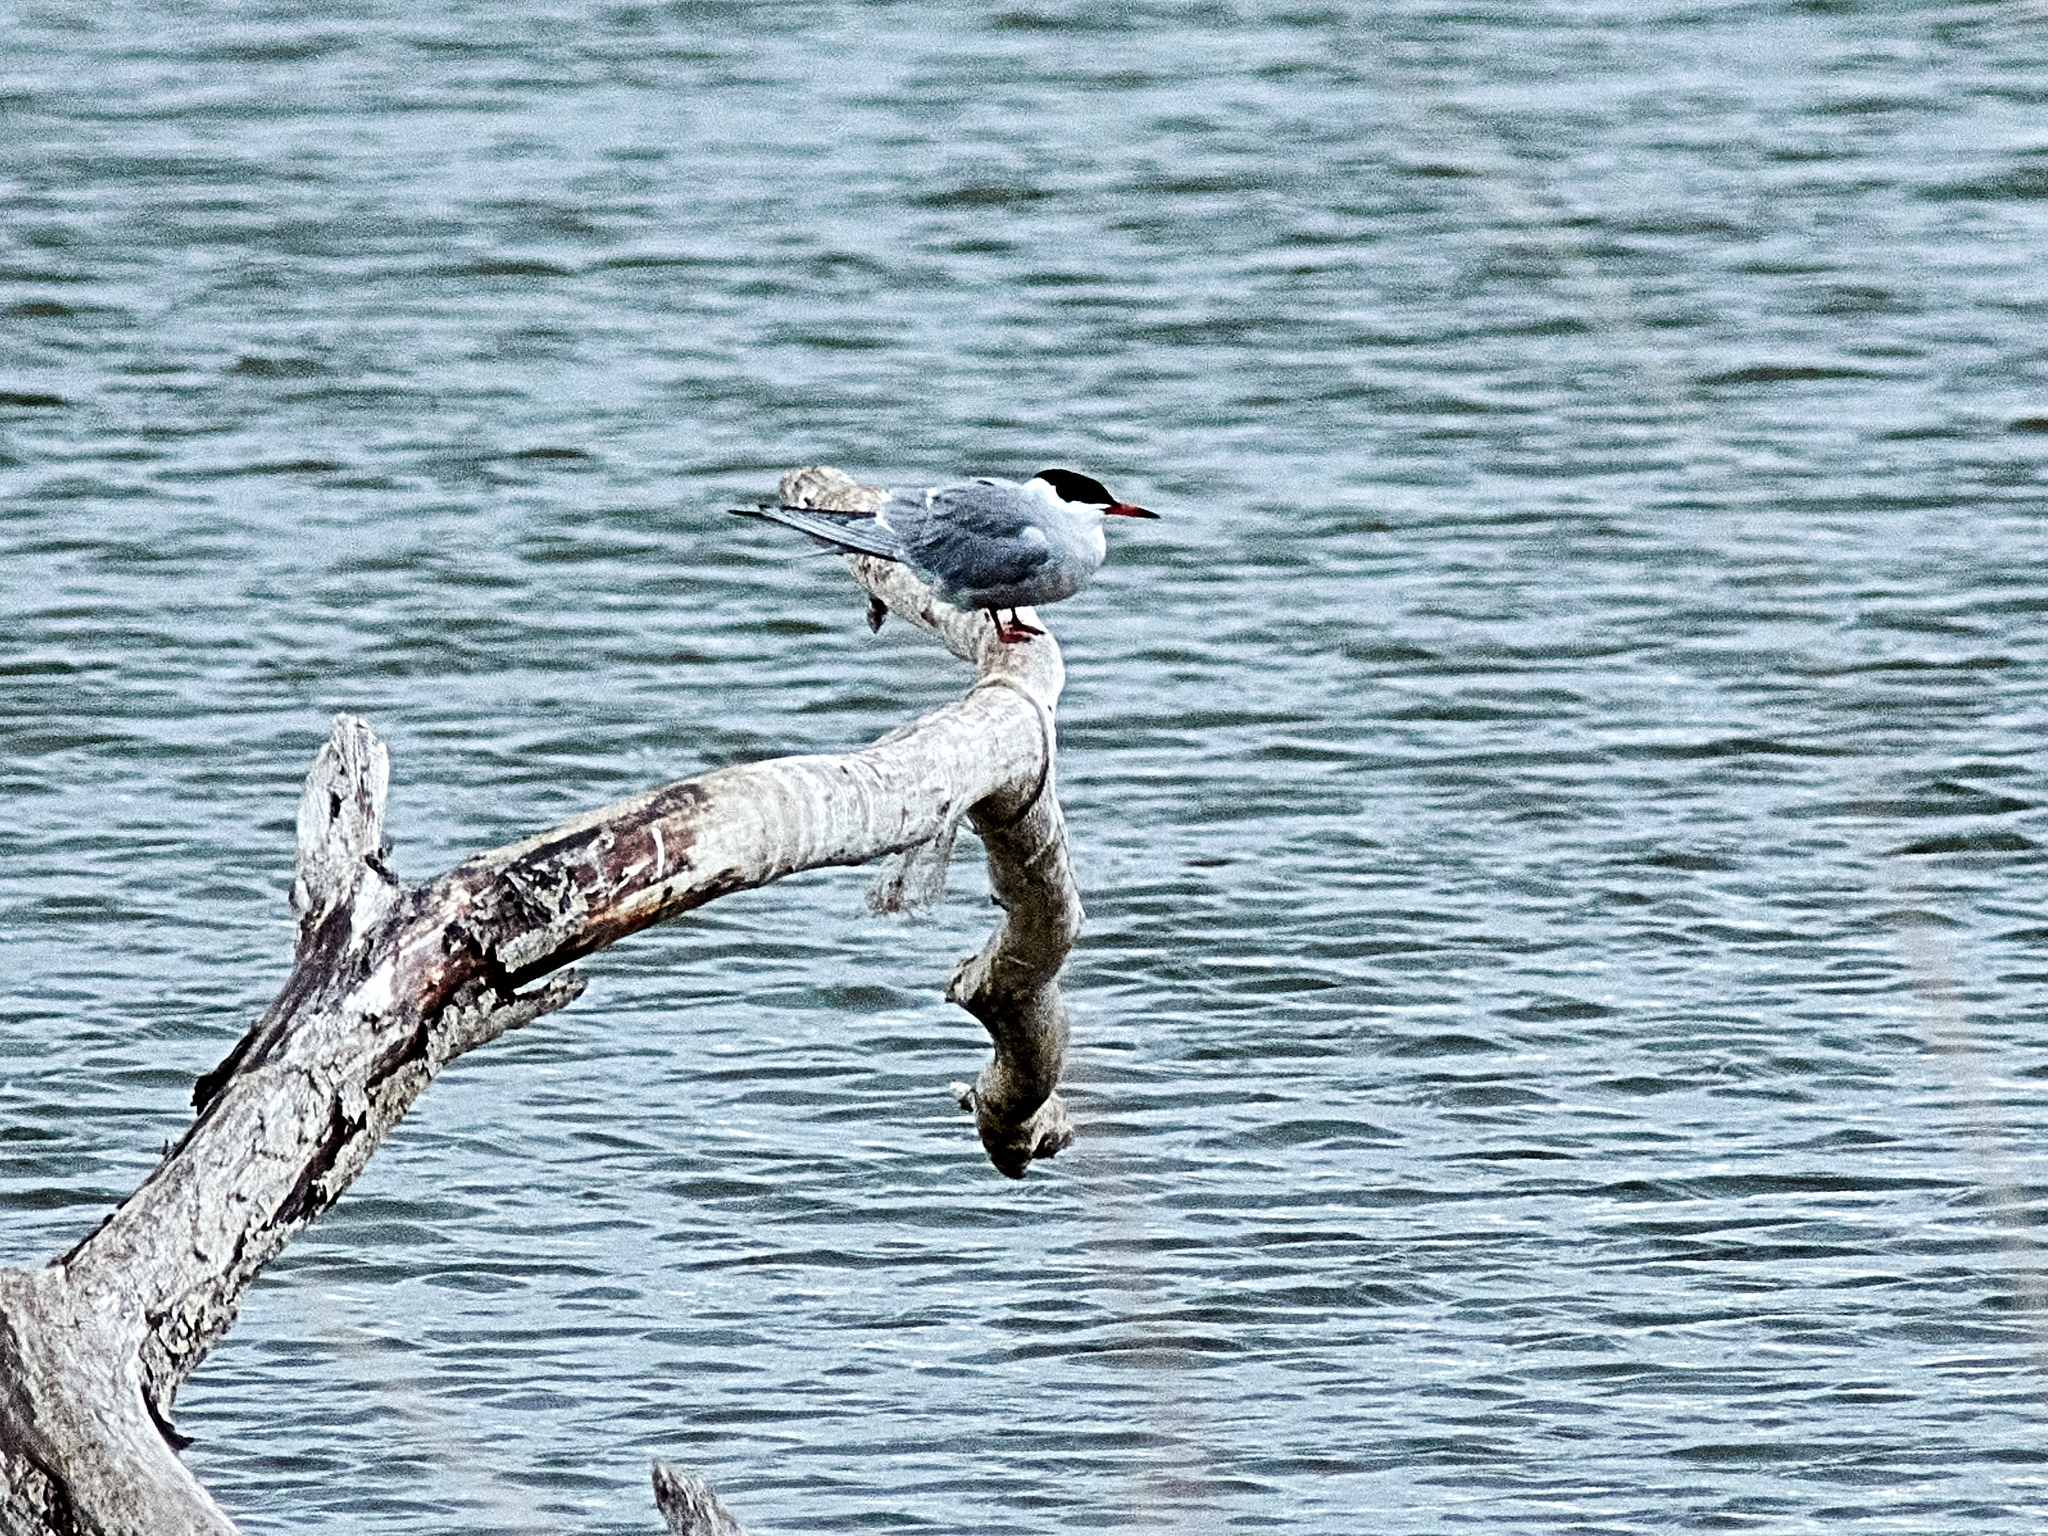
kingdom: Animalia
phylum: Chordata
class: Aves
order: Charadriiformes
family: Laridae
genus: Sterna
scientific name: Sterna hirundo
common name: Common tern
